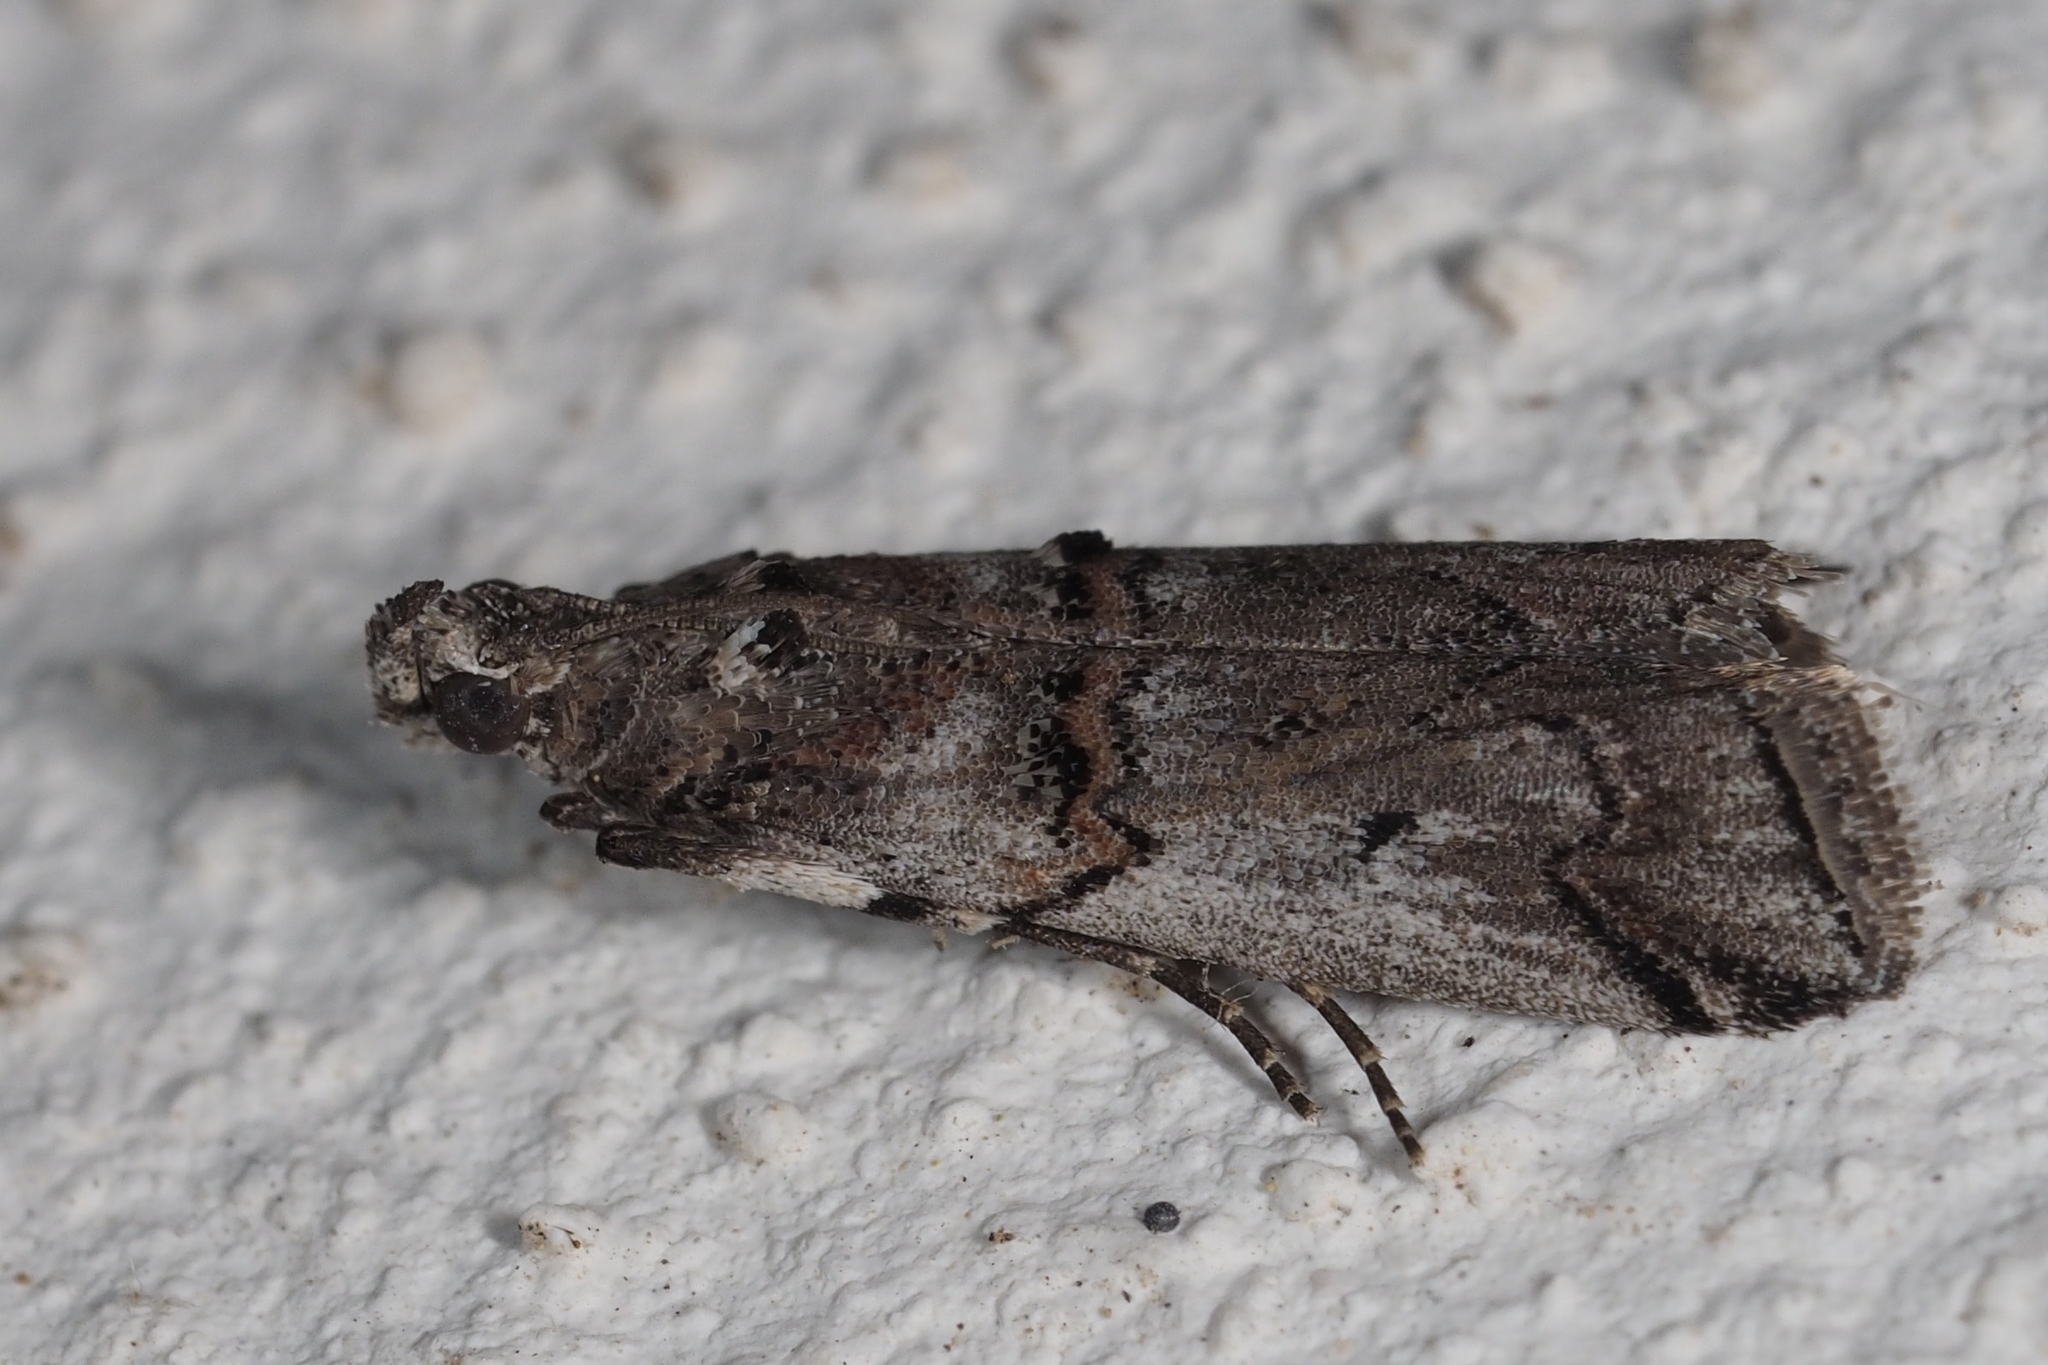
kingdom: Animalia
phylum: Arthropoda
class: Insecta
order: Lepidoptera
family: Pyralidae
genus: Pempelia
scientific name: Pempelia palumbella
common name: Heather knot-horn
